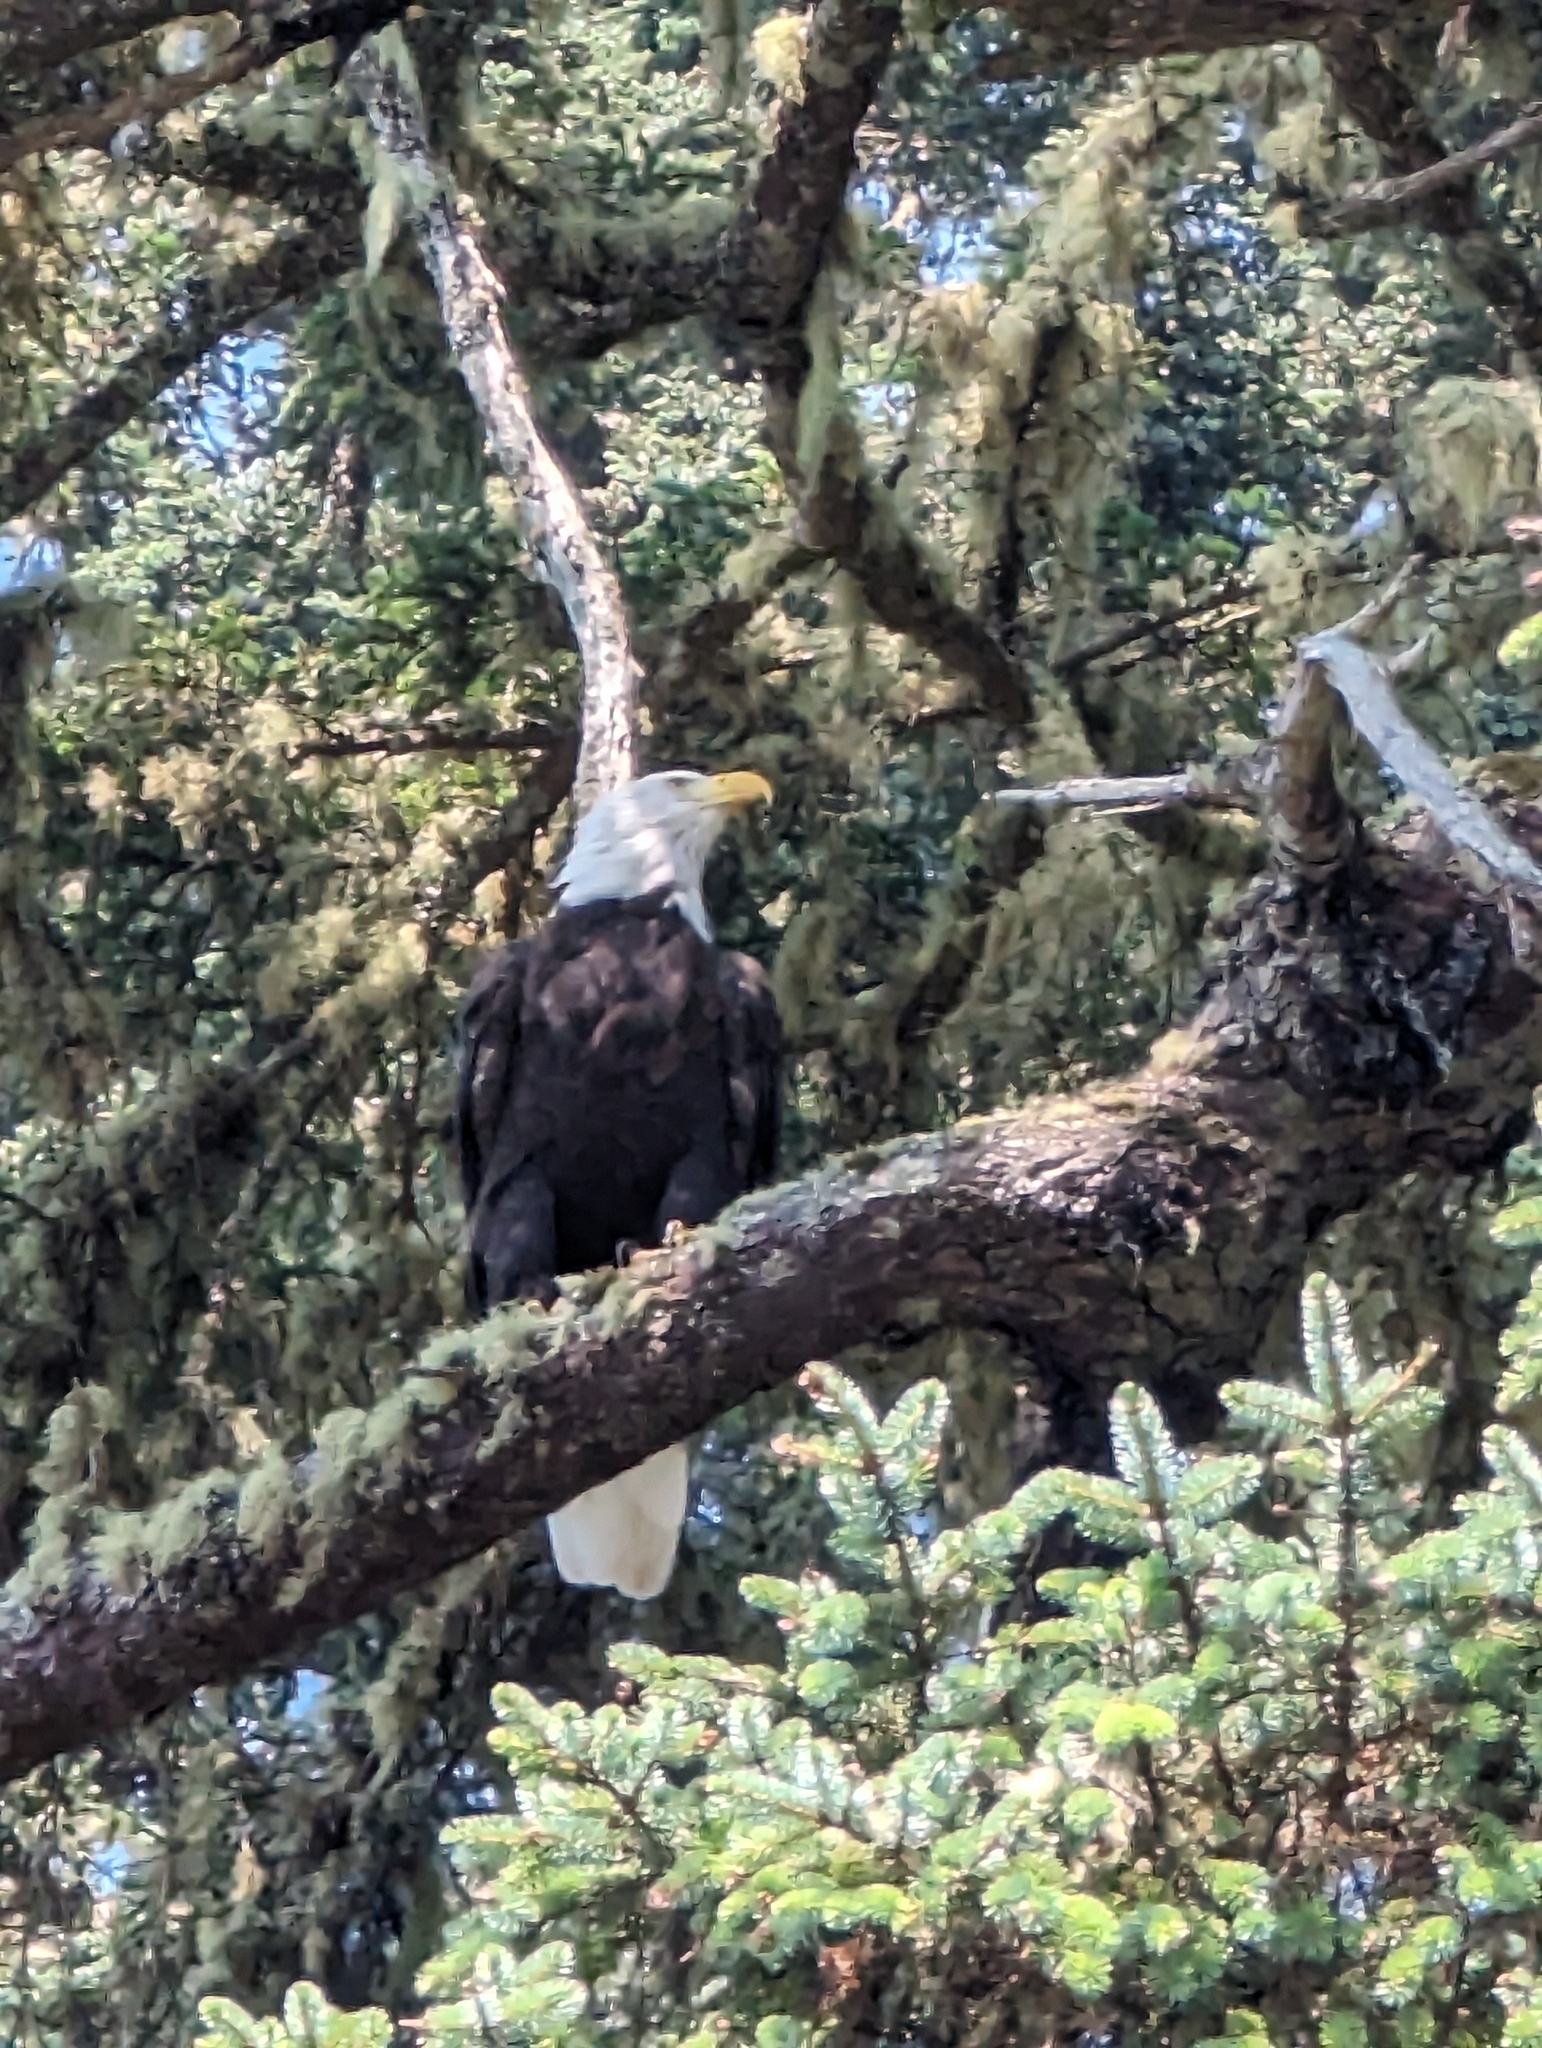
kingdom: Animalia
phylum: Chordata
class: Aves
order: Accipitriformes
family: Accipitridae
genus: Haliaeetus
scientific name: Haliaeetus leucocephalus
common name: Bald eagle
